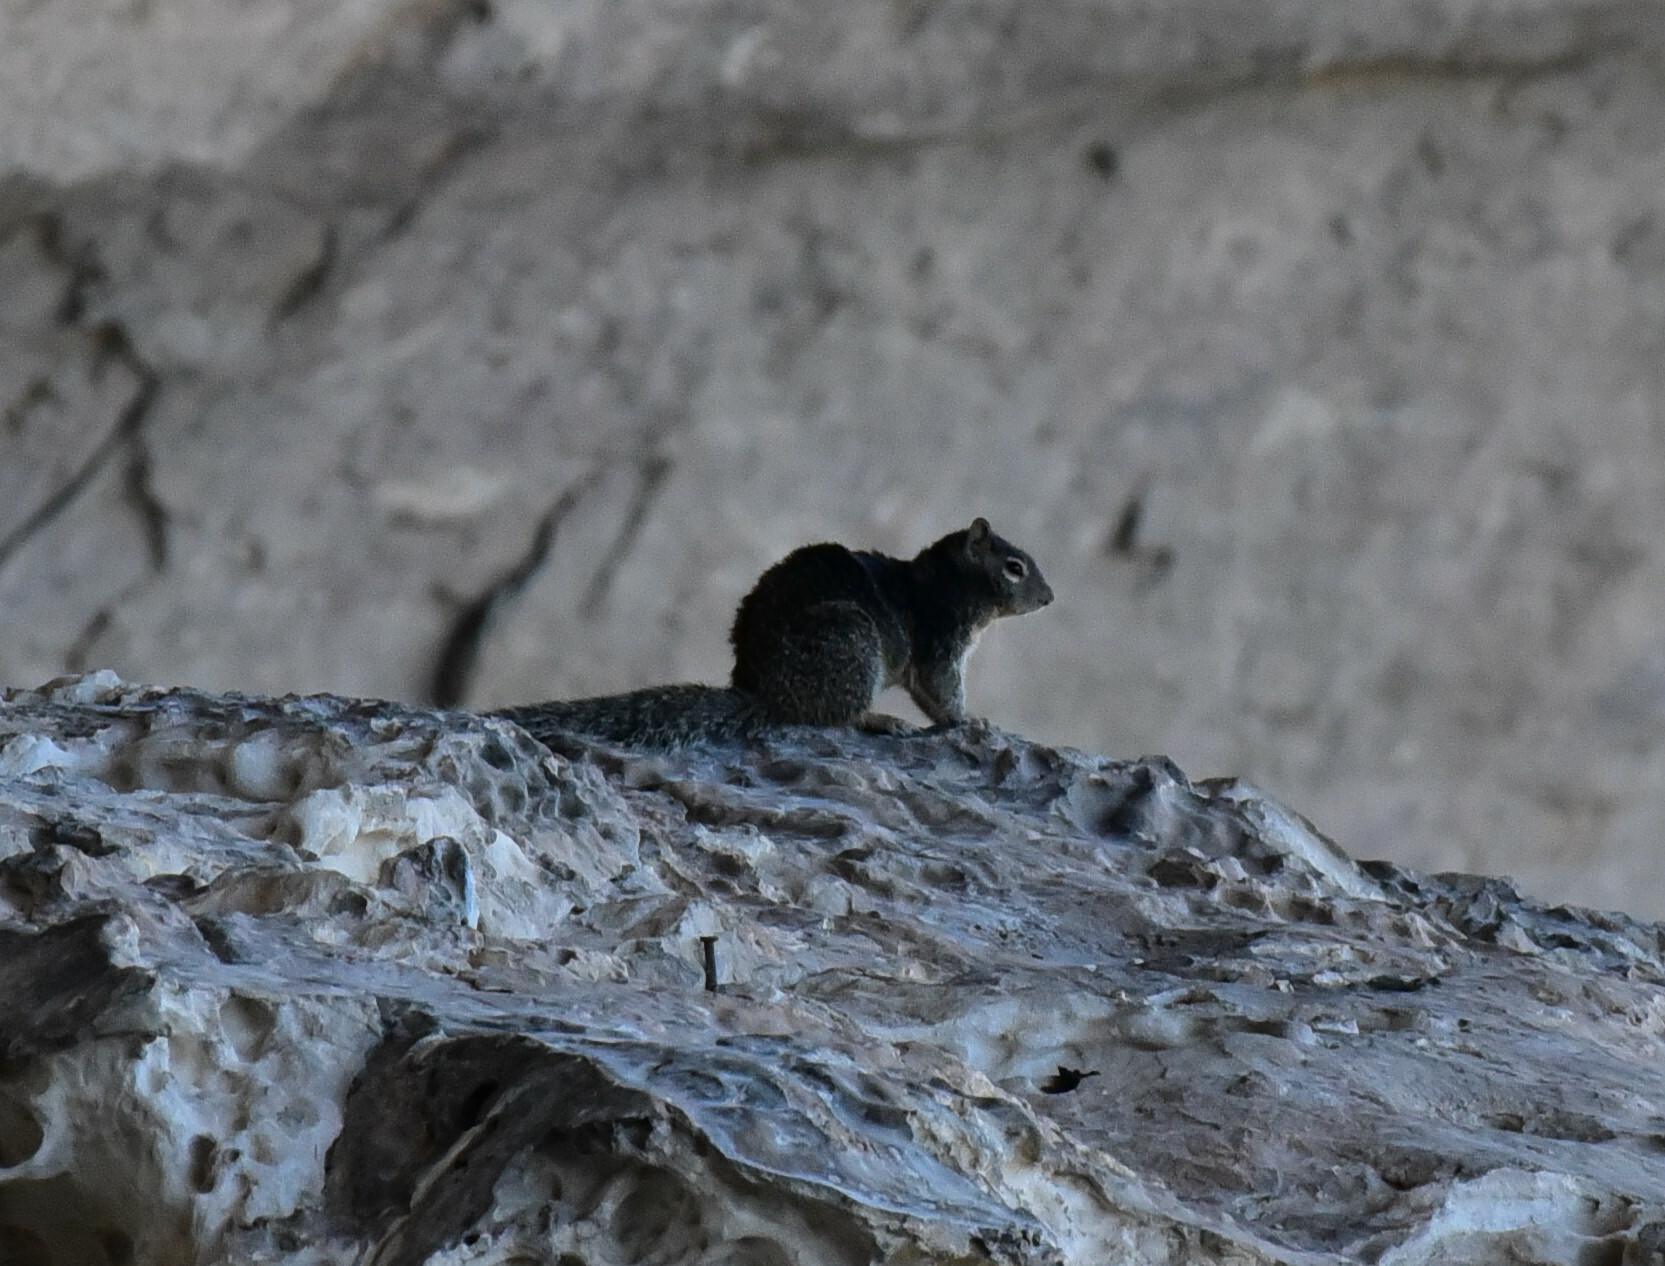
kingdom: Animalia
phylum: Chordata
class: Mammalia
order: Rodentia
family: Sciuridae
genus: Otospermophilus
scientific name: Otospermophilus variegatus
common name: Rock squirrel
